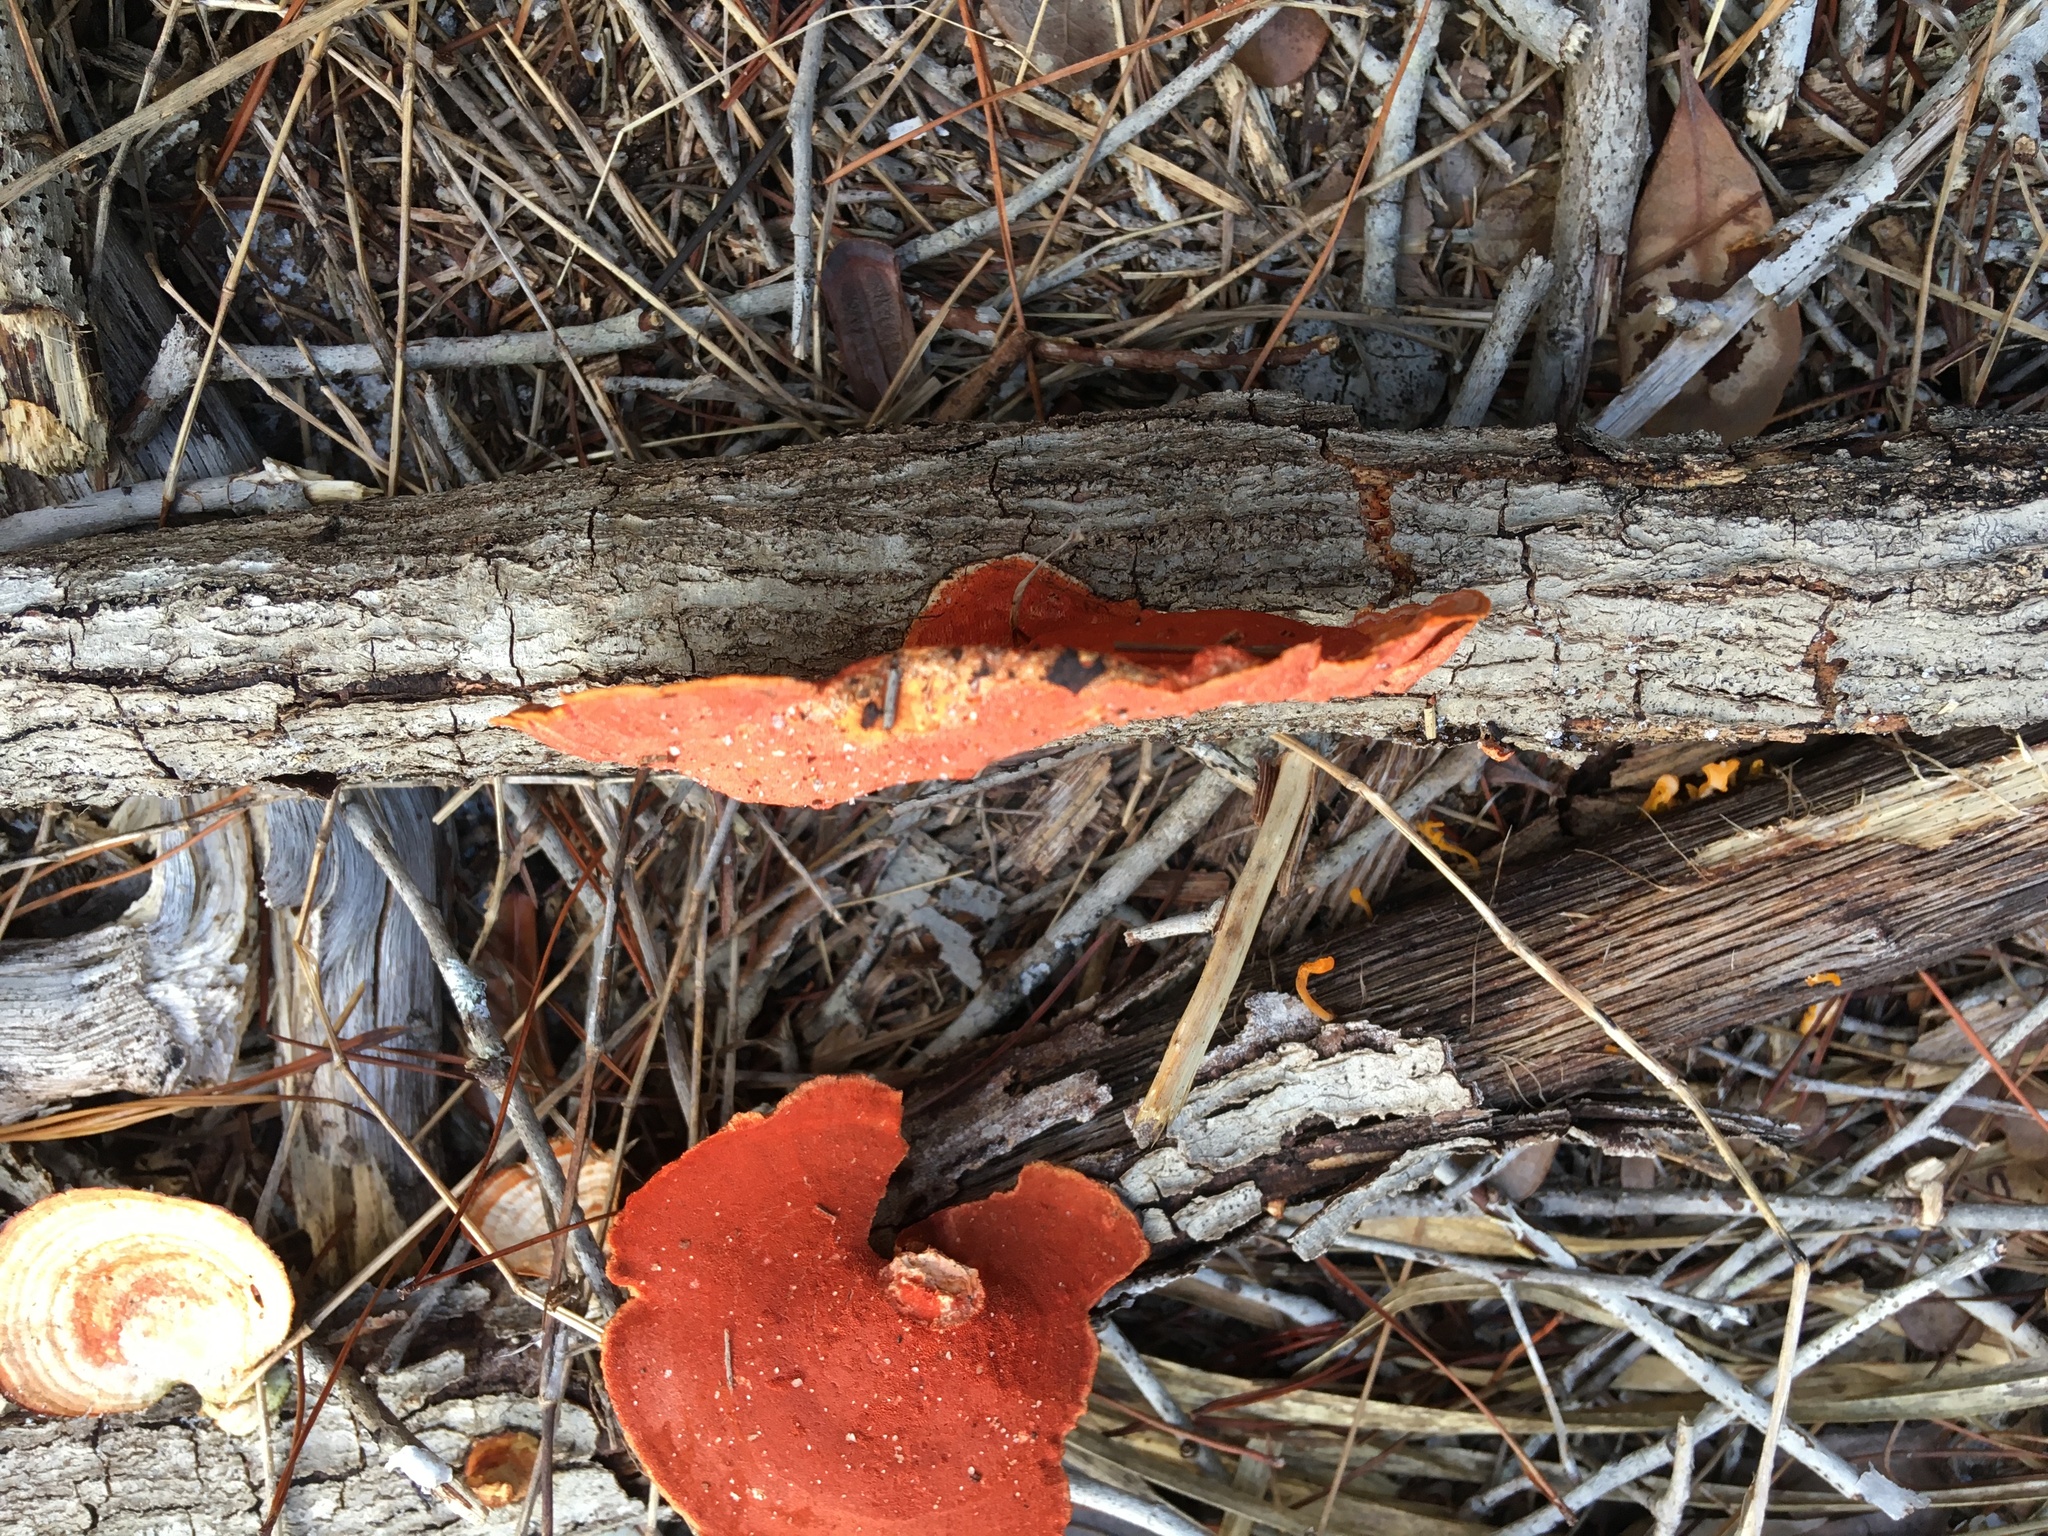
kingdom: Fungi
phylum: Basidiomycota
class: Agaricomycetes
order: Polyporales
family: Polyporaceae
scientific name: Polyporaceae
